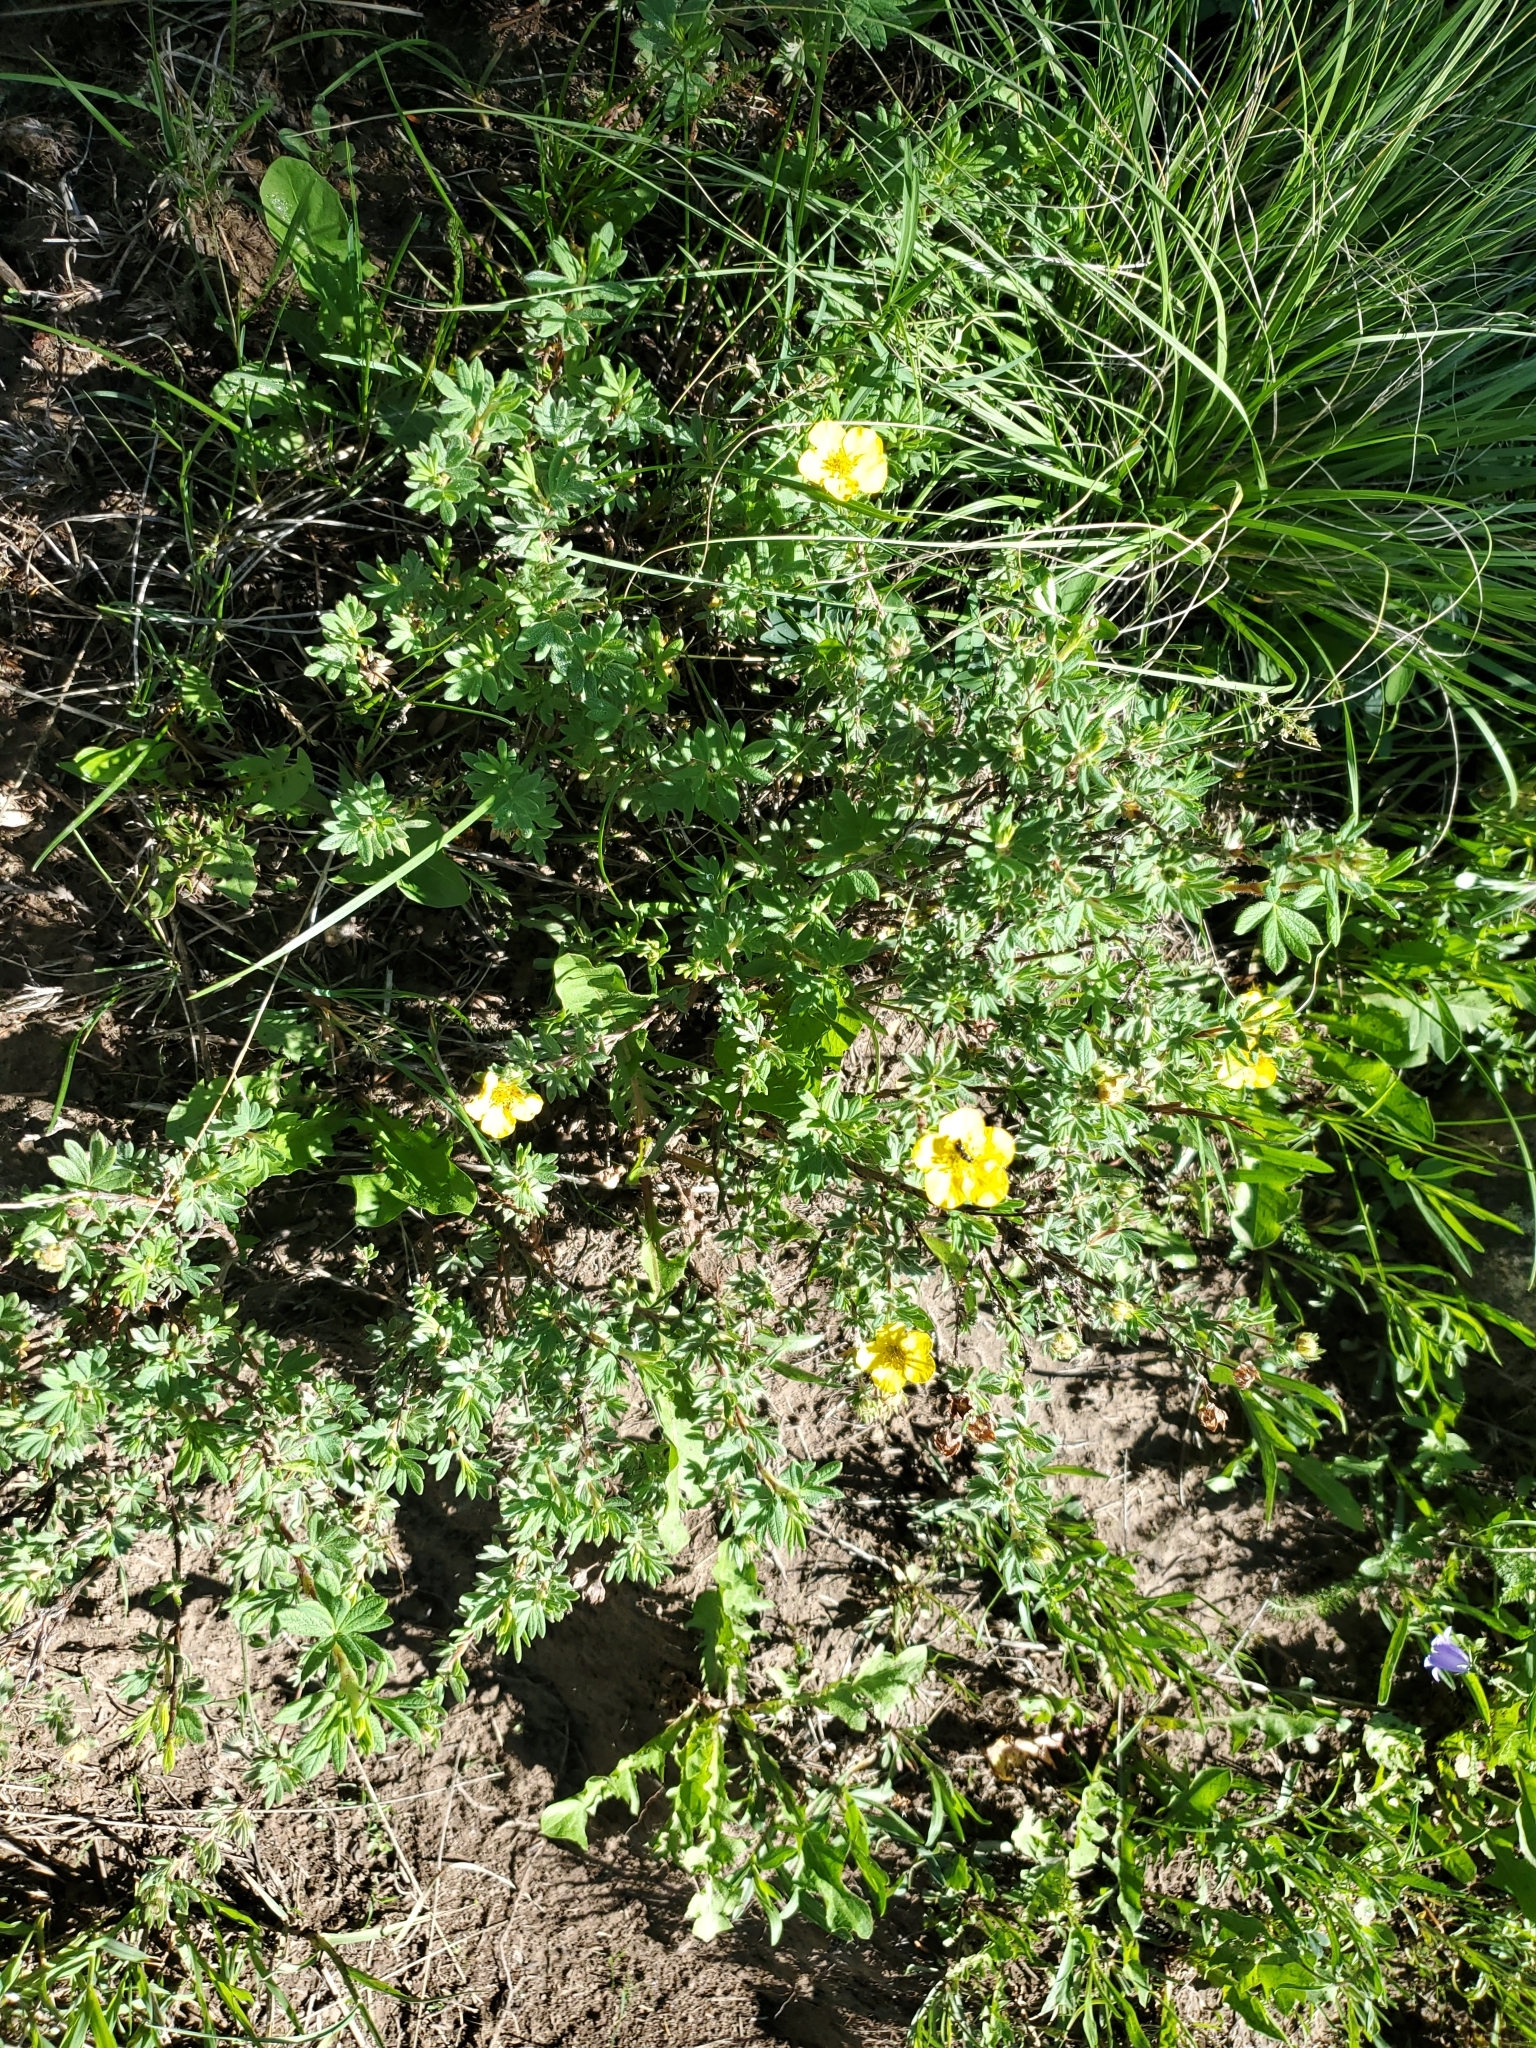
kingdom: Plantae
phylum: Tracheophyta
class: Magnoliopsida
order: Rosales
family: Rosaceae
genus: Dasiphora
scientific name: Dasiphora fruticosa
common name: Shrubby cinquefoil
